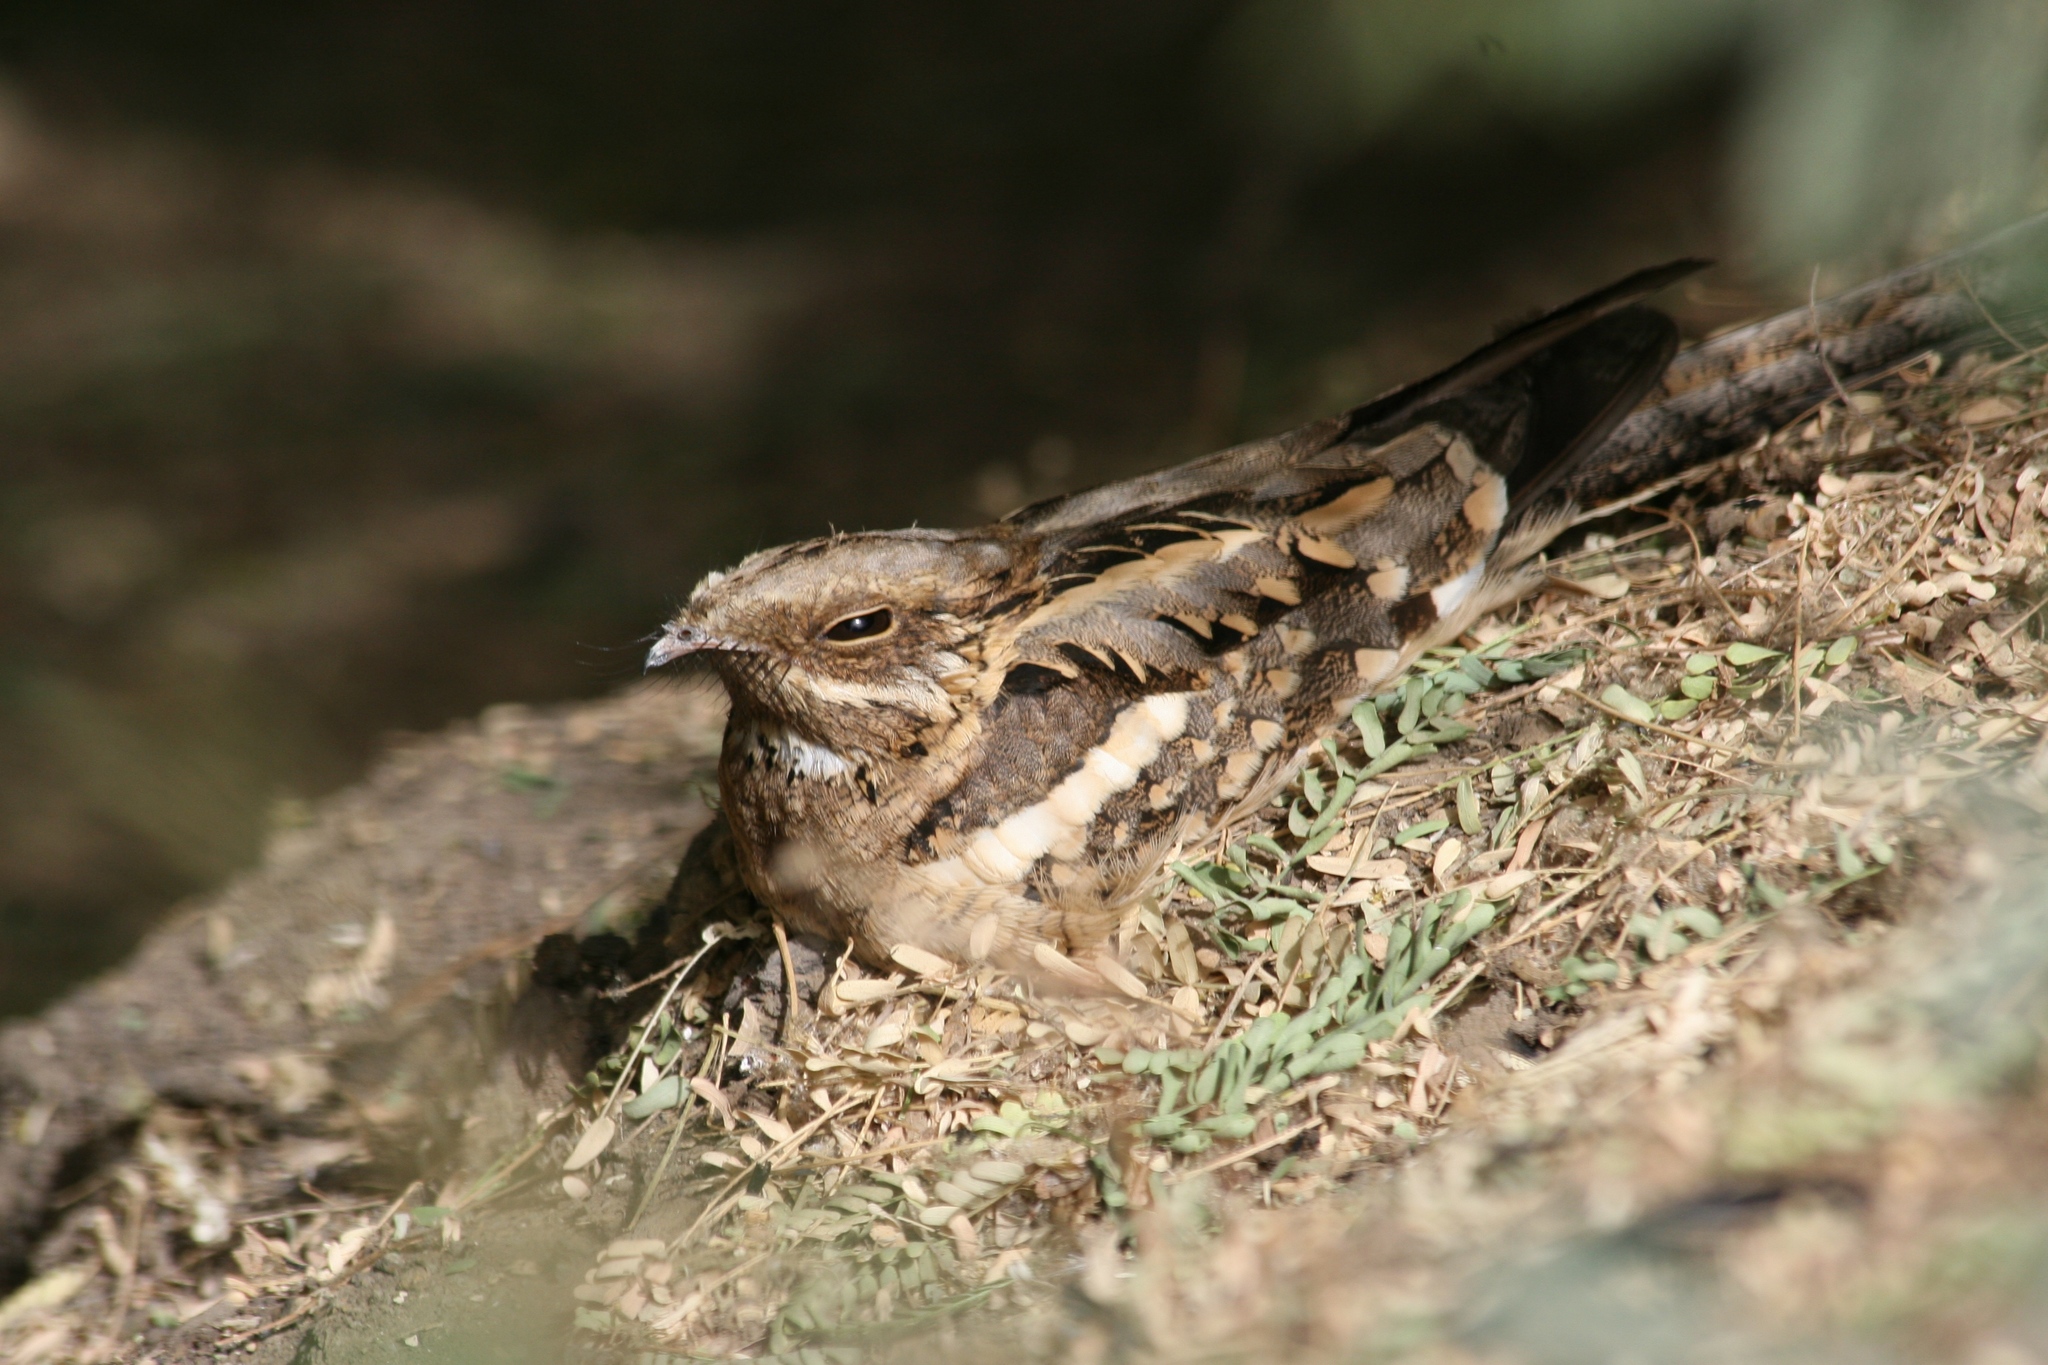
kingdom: Animalia
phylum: Chordata
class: Aves
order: Caprimulgiformes
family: Caprimulgidae
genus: Caprimulgus
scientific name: Caprimulgus climacurus
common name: Long-tailed nightjar
